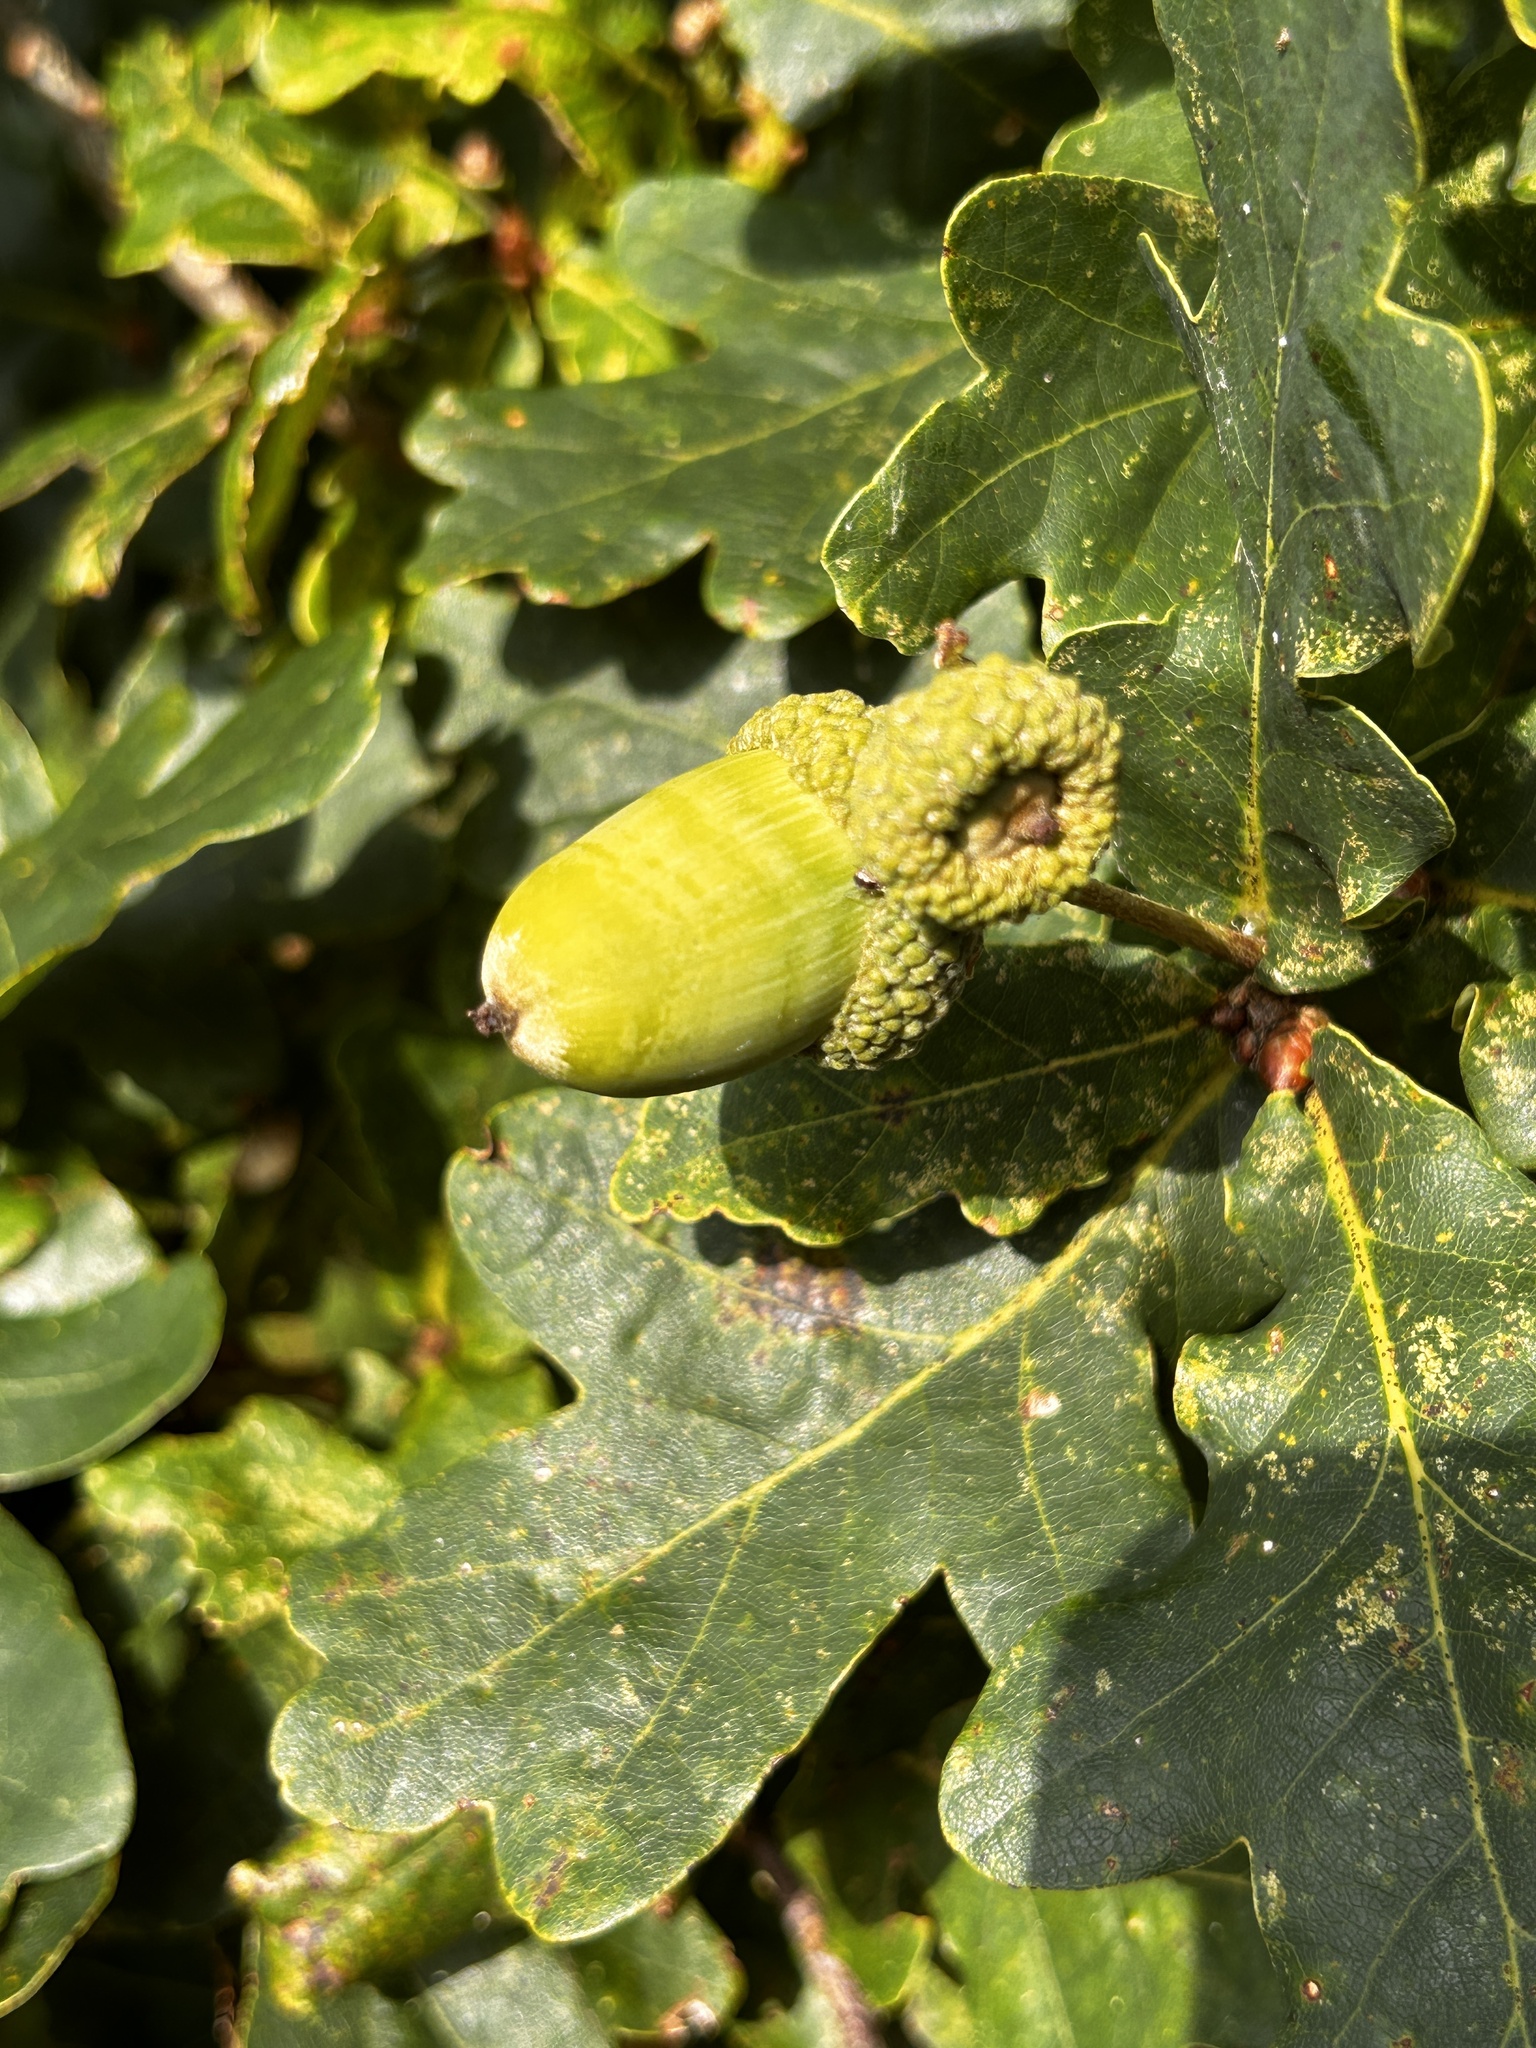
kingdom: Plantae
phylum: Tracheophyta
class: Magnoliopsida
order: Fagales
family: Fagaceae
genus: Quercus
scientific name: Quercus robur
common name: Pedunculate oak
